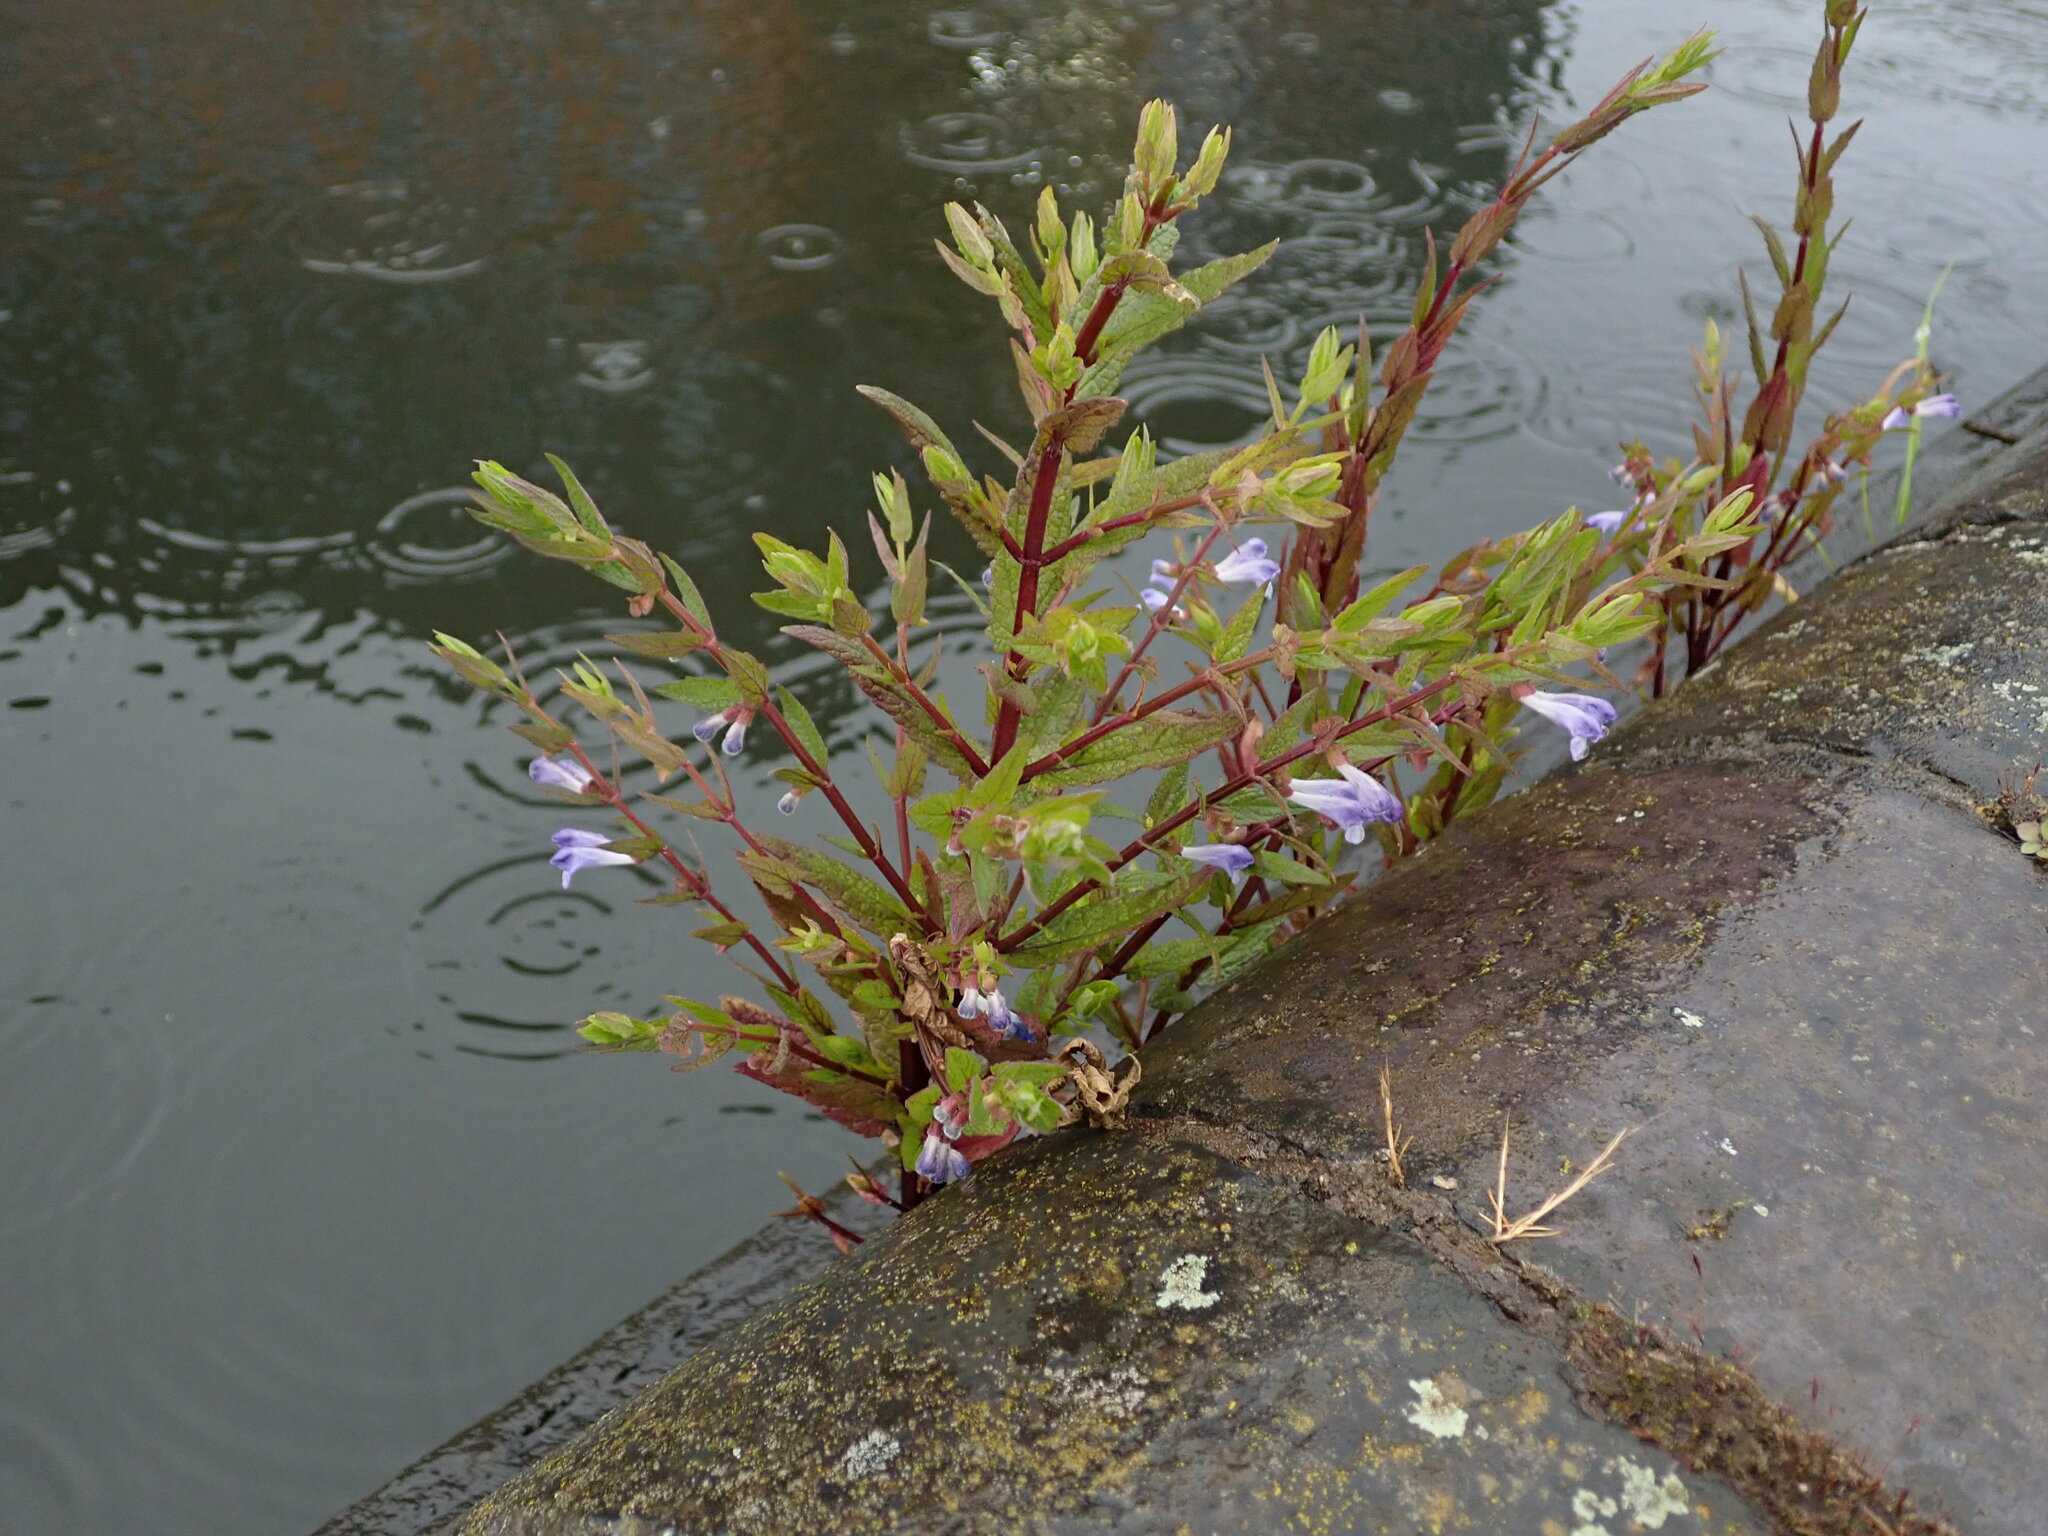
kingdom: Plantae
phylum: Tracheophyta
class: Magnoliopsida
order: Lamiales
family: Lamiaceae
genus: Scutellaria
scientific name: Scutellaria galericulata
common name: Skullcap
